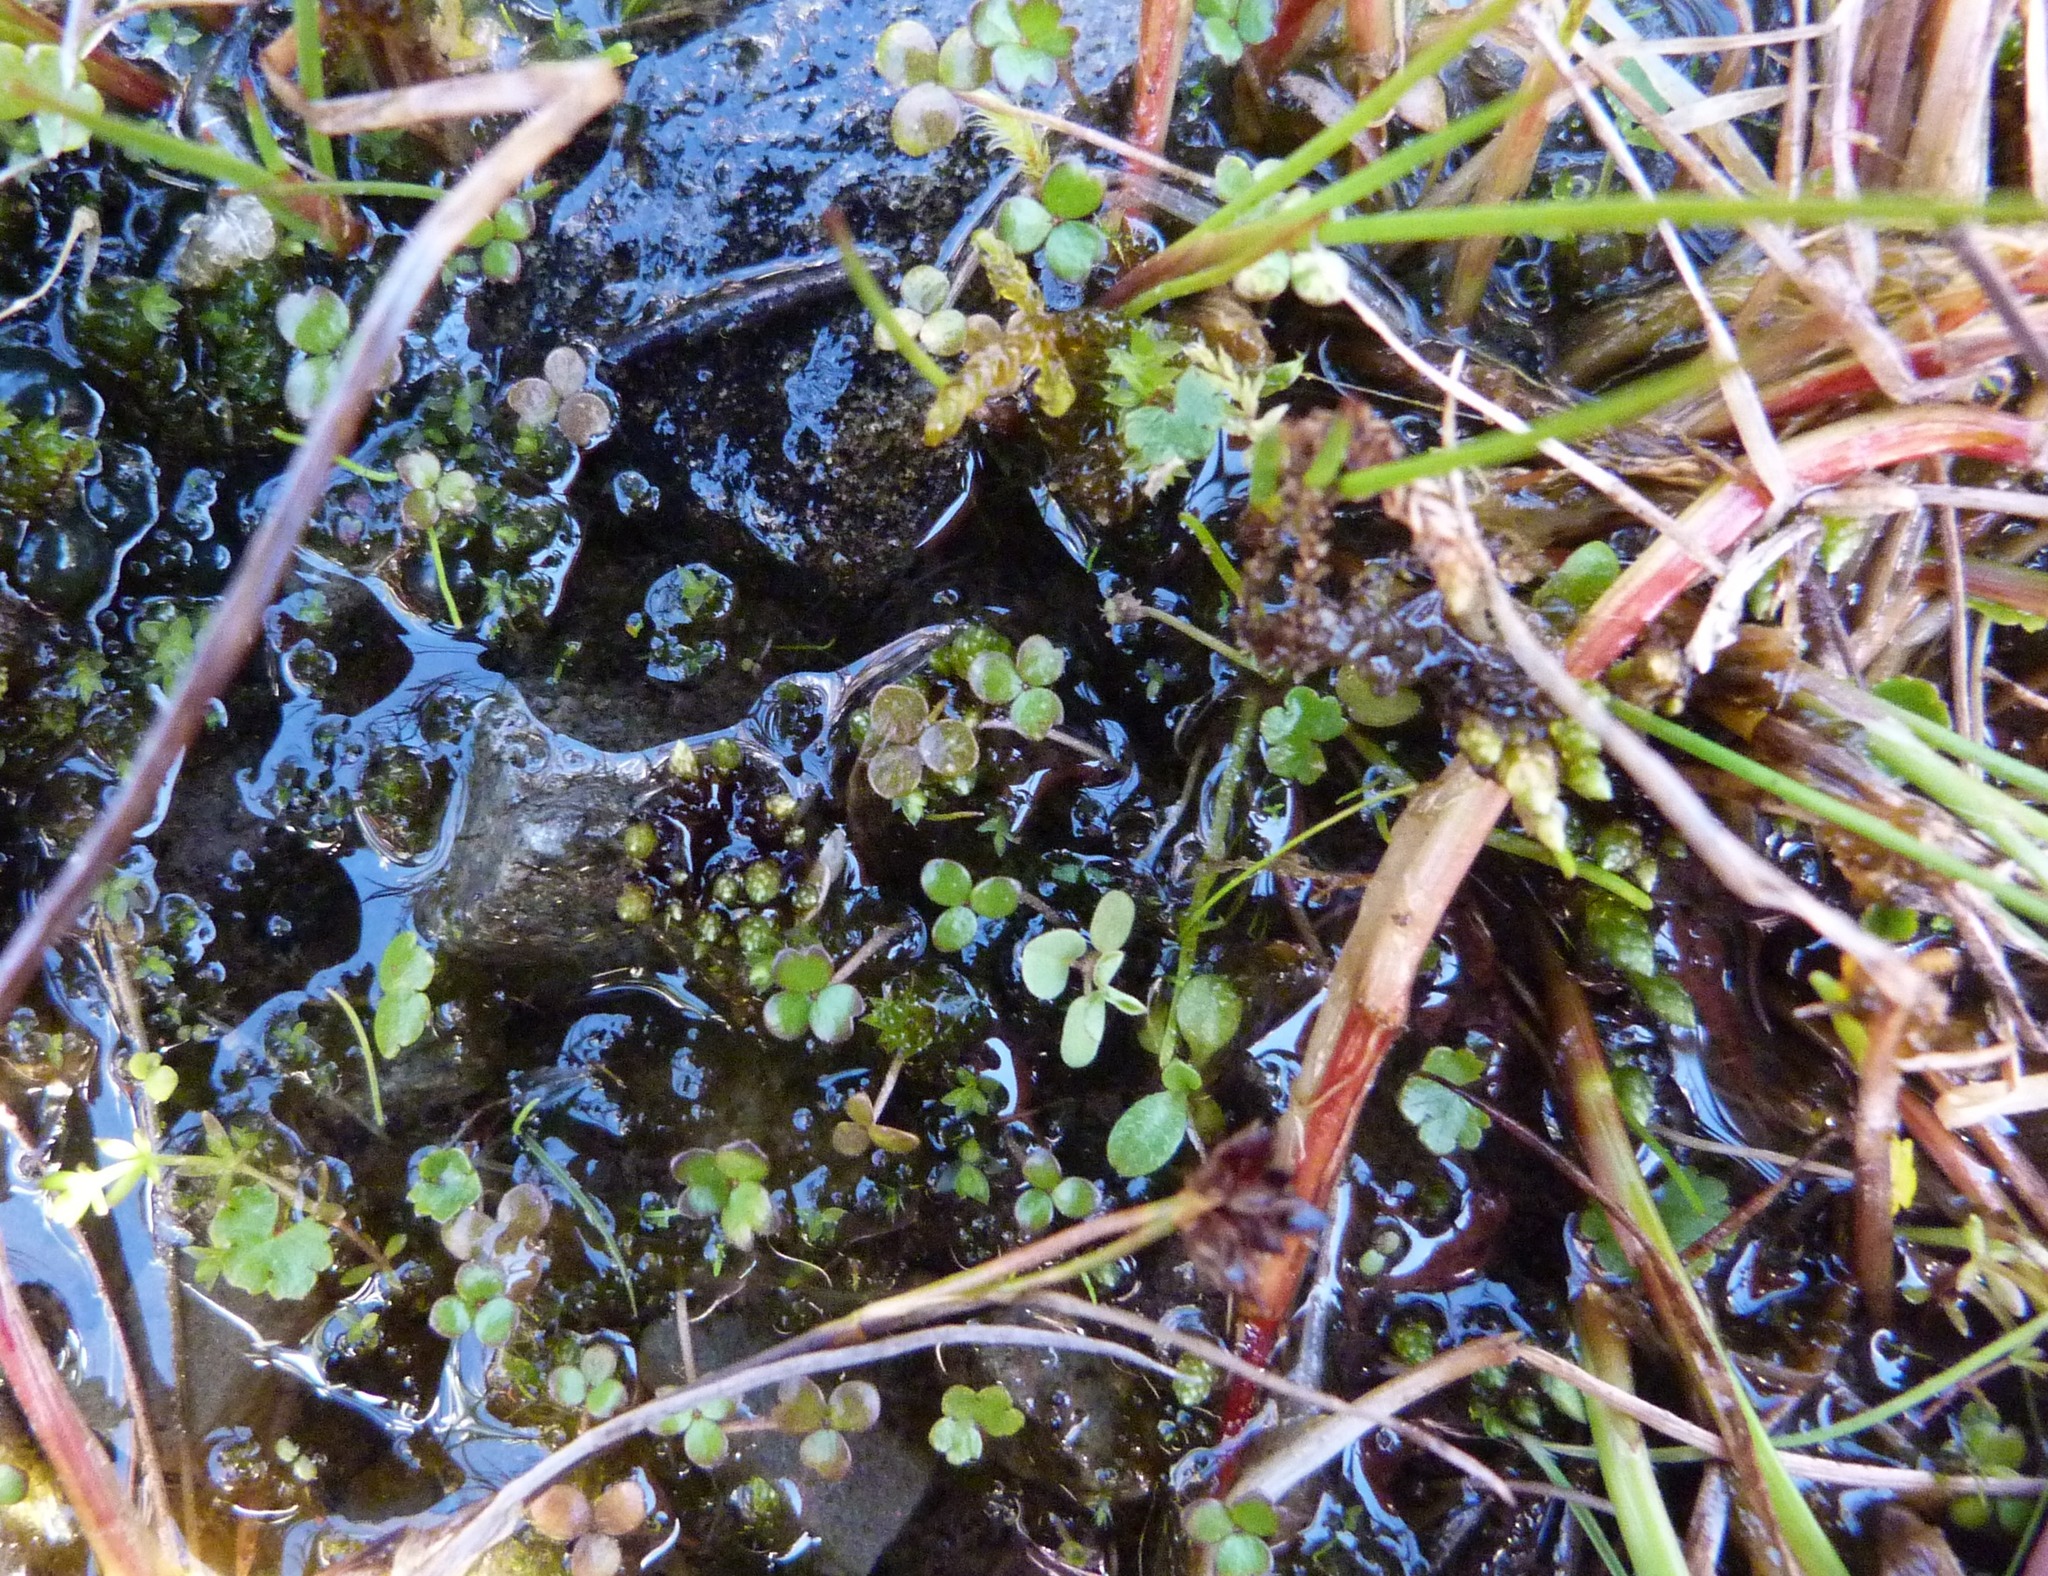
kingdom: Plantae
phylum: Tracheophyta
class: Magnoliopsida
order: Apiales
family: Araliaceae
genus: Hydrocotyle
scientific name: Hydrocotyle sulcata
